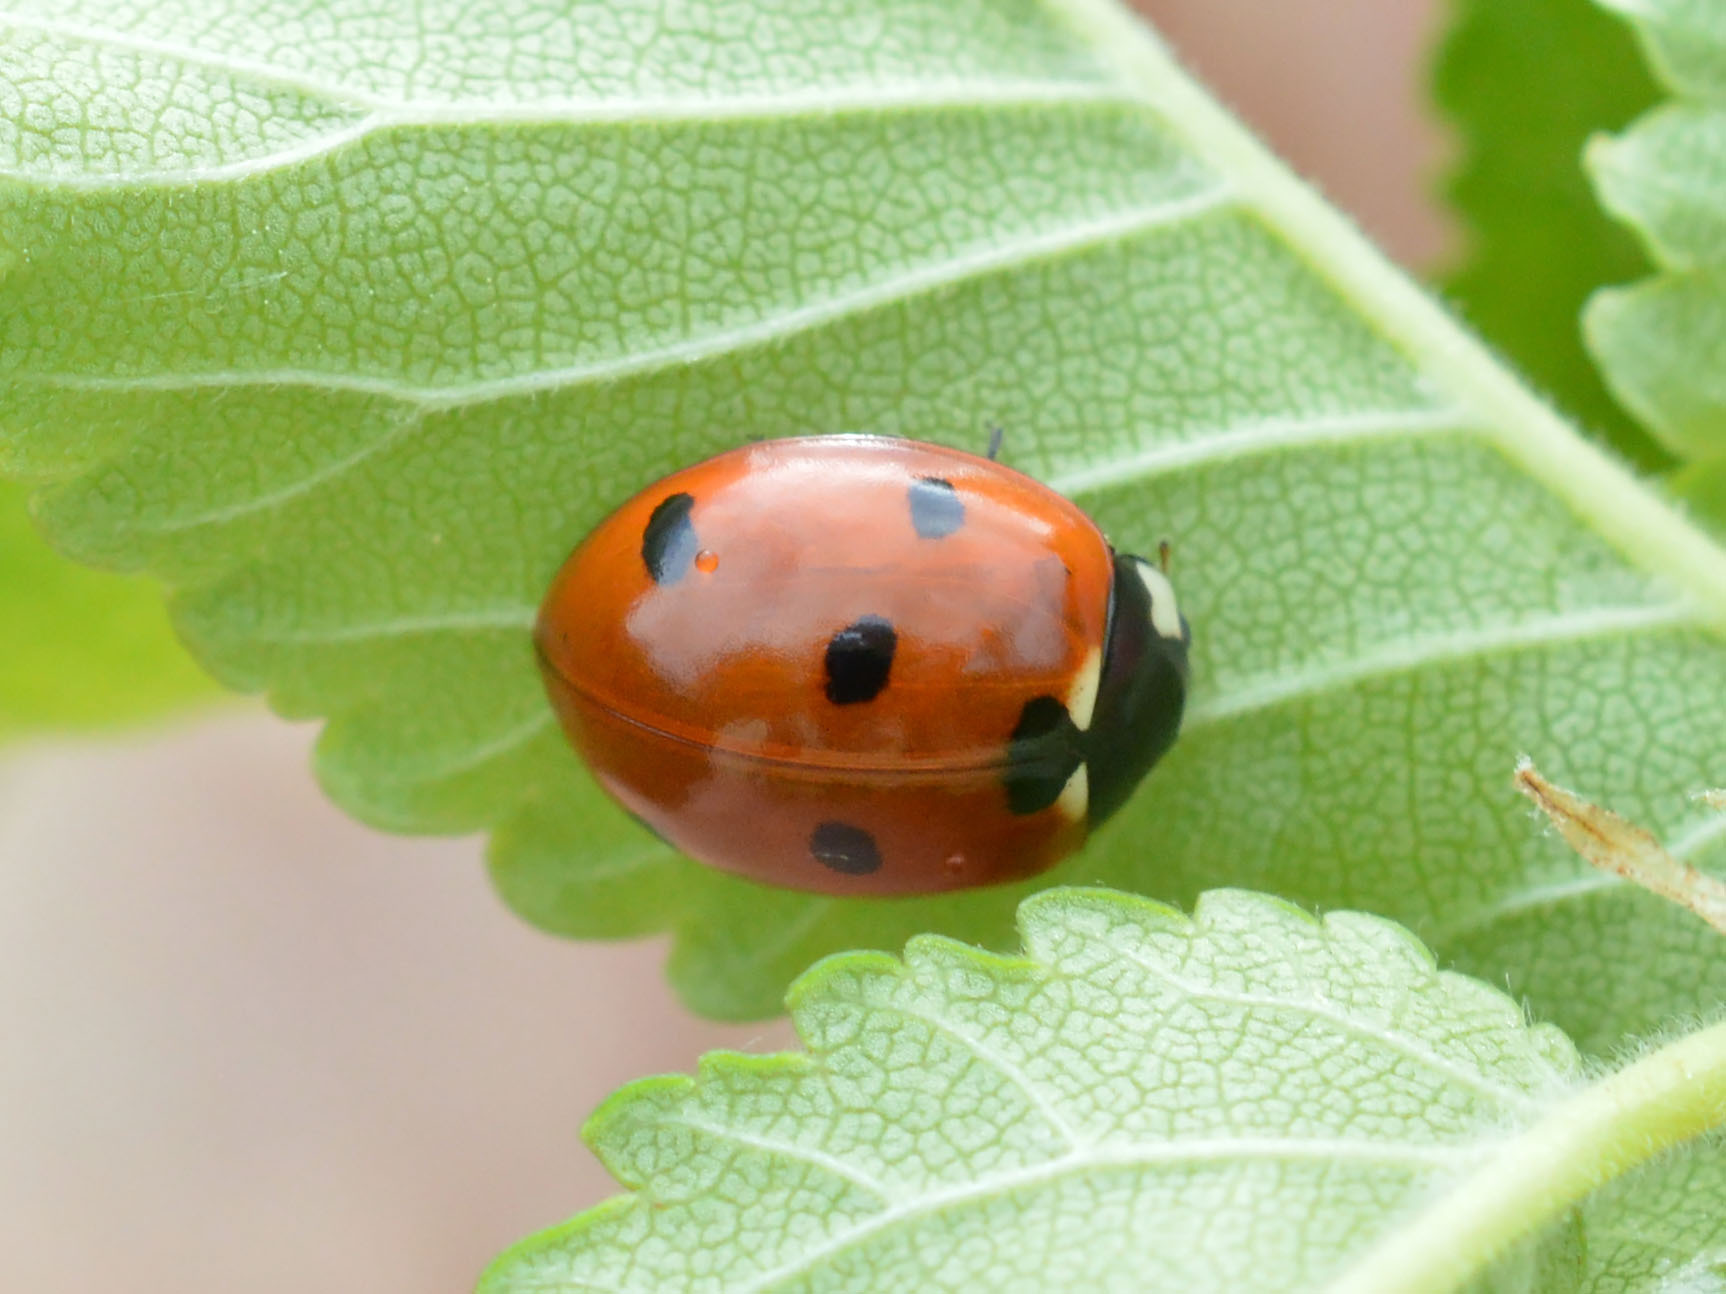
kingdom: Animalia
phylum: Arthropoda
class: Insecta
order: Coleoptera
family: Coccinellidae
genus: Coccinella
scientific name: Coccinella septempunctata
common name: Sevenspotted lady beetle
